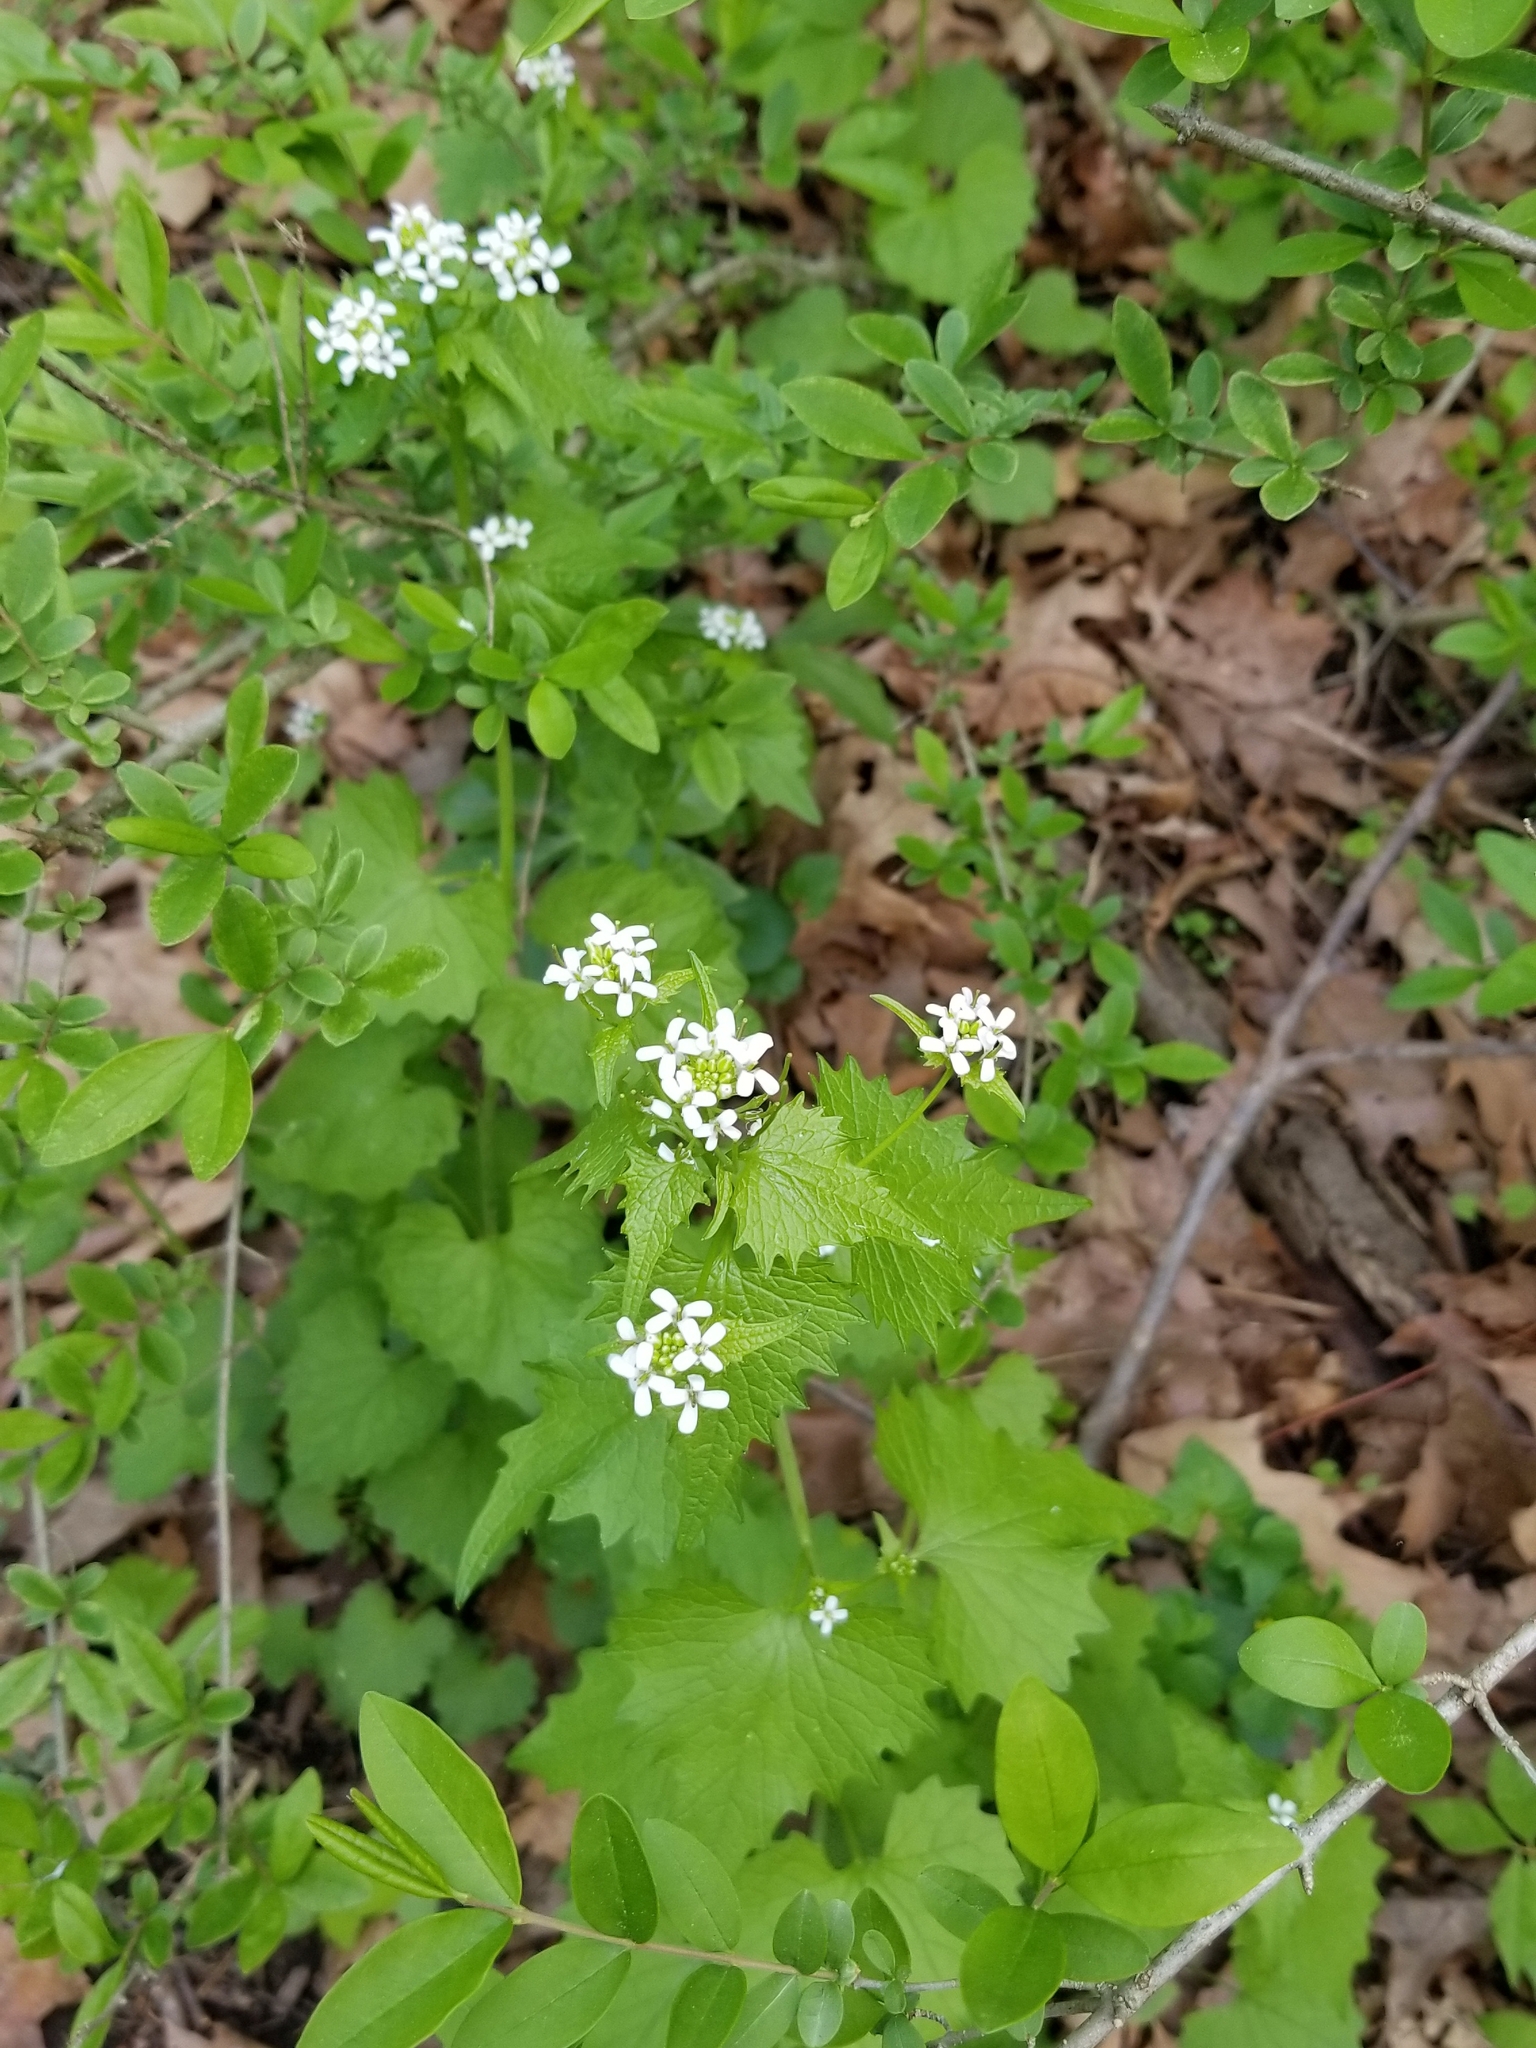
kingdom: Plantae
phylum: Tracheophyta
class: Magnoliopsida
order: Brassicales
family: Brassicaceae
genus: Alliaria
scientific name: Alliaria petiolata
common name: Garlic mustard
